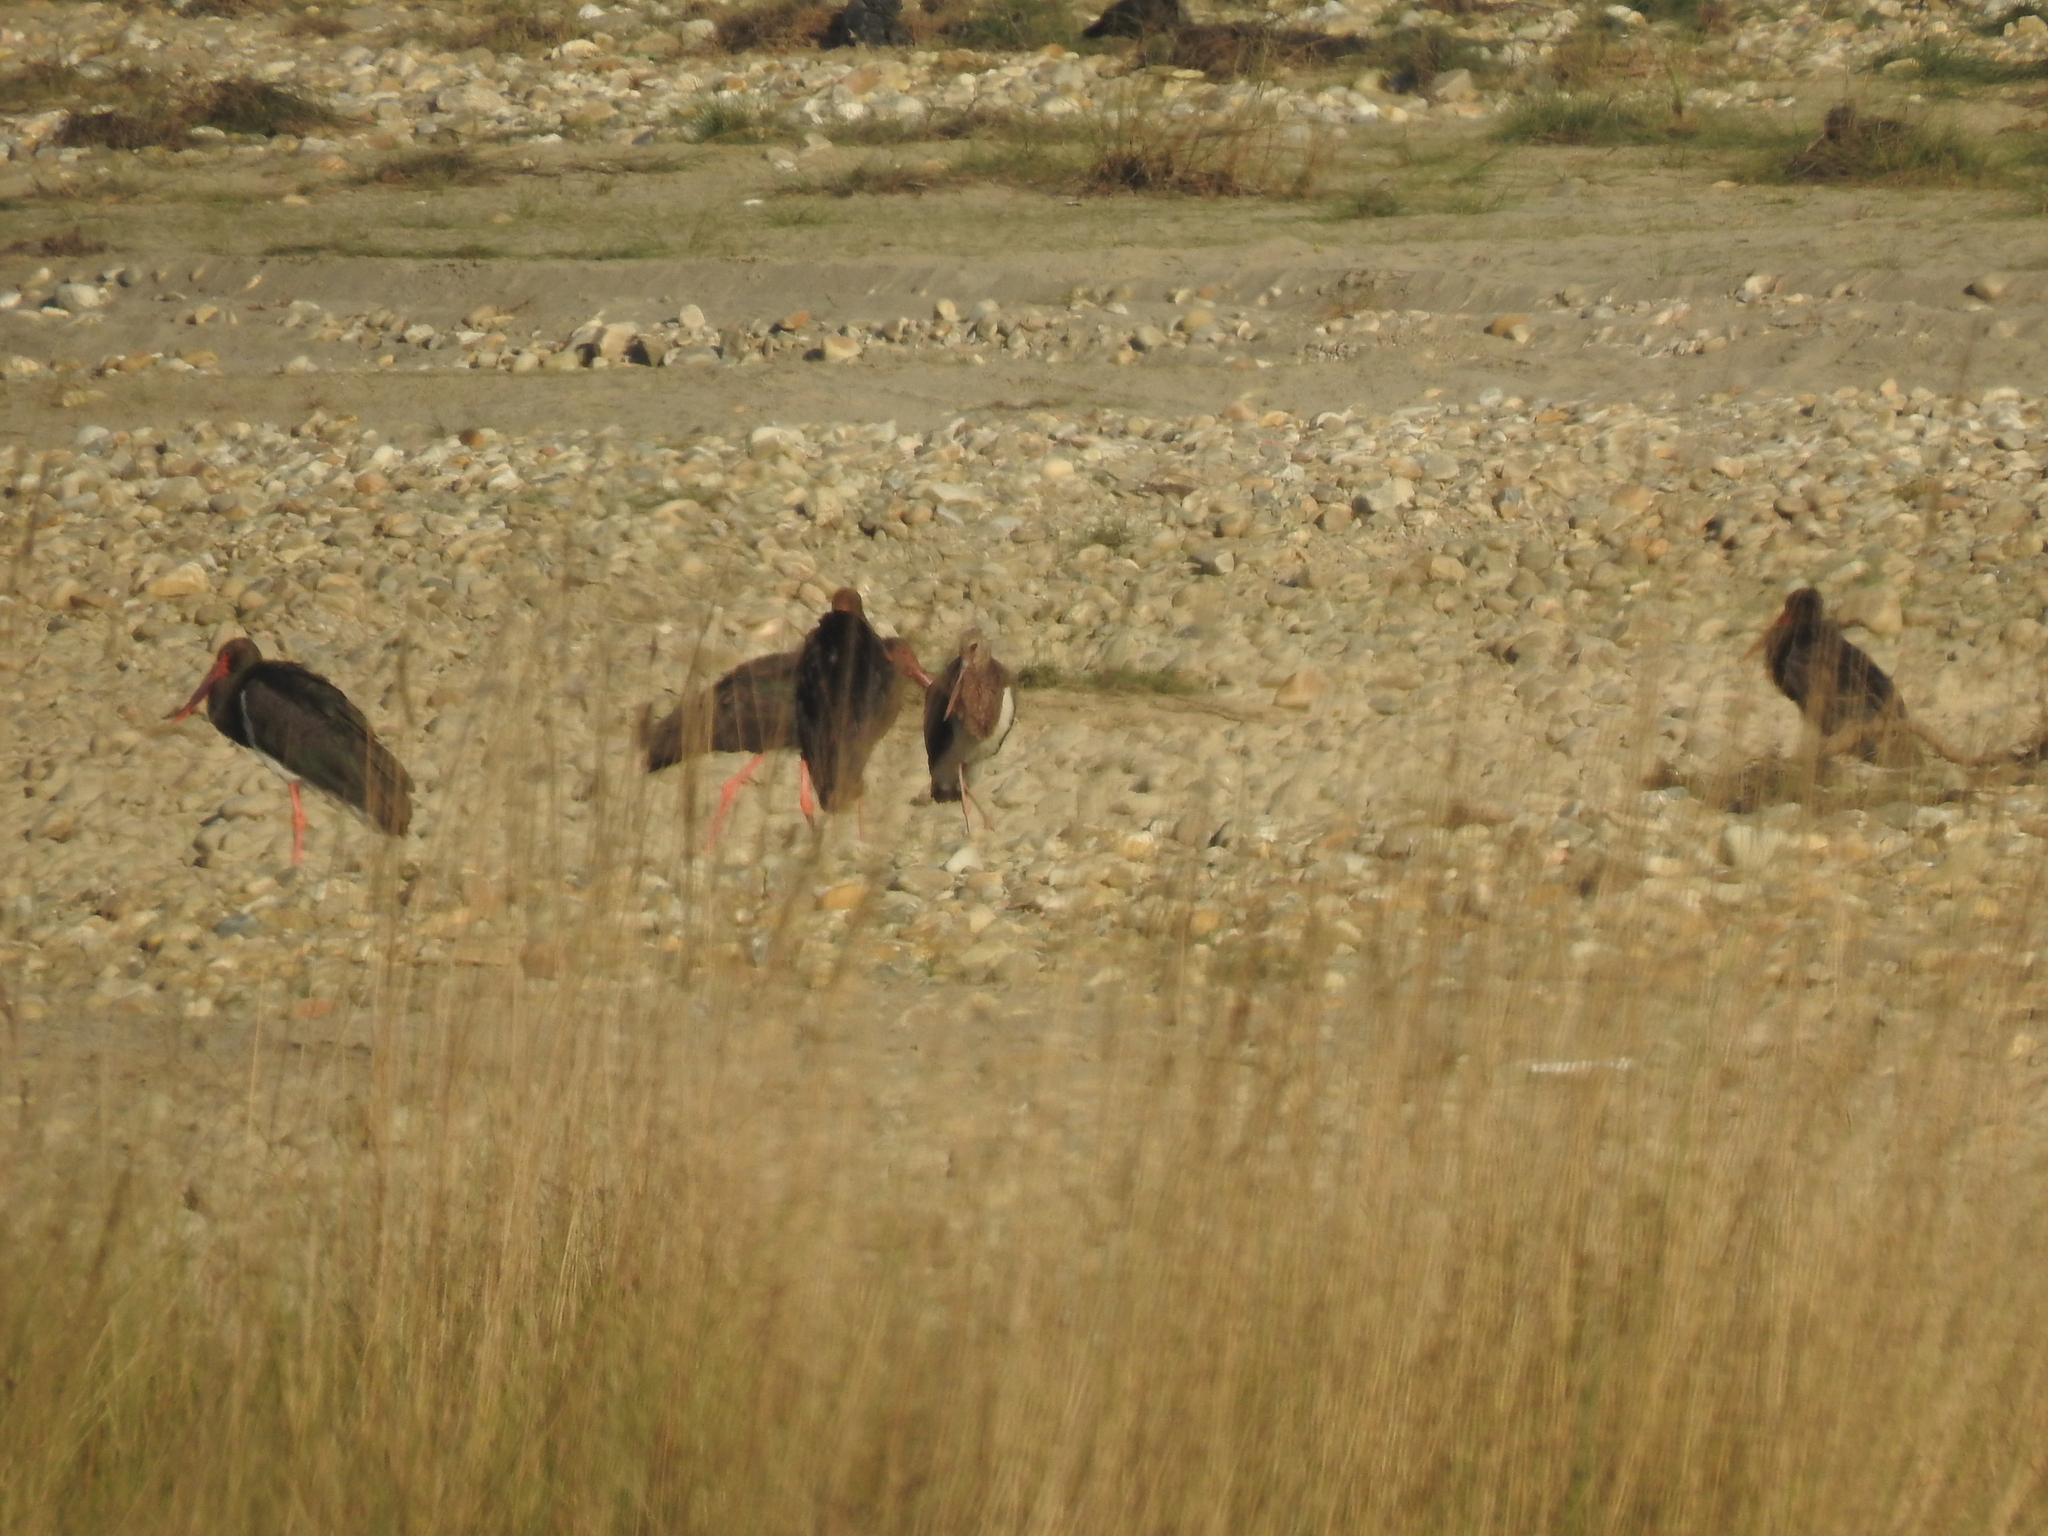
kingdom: Animalia
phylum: Chordata
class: Aves
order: Ciconiiformes
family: Ciconiidae
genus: Ciconia
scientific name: Ciconia nigra
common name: Black stork
